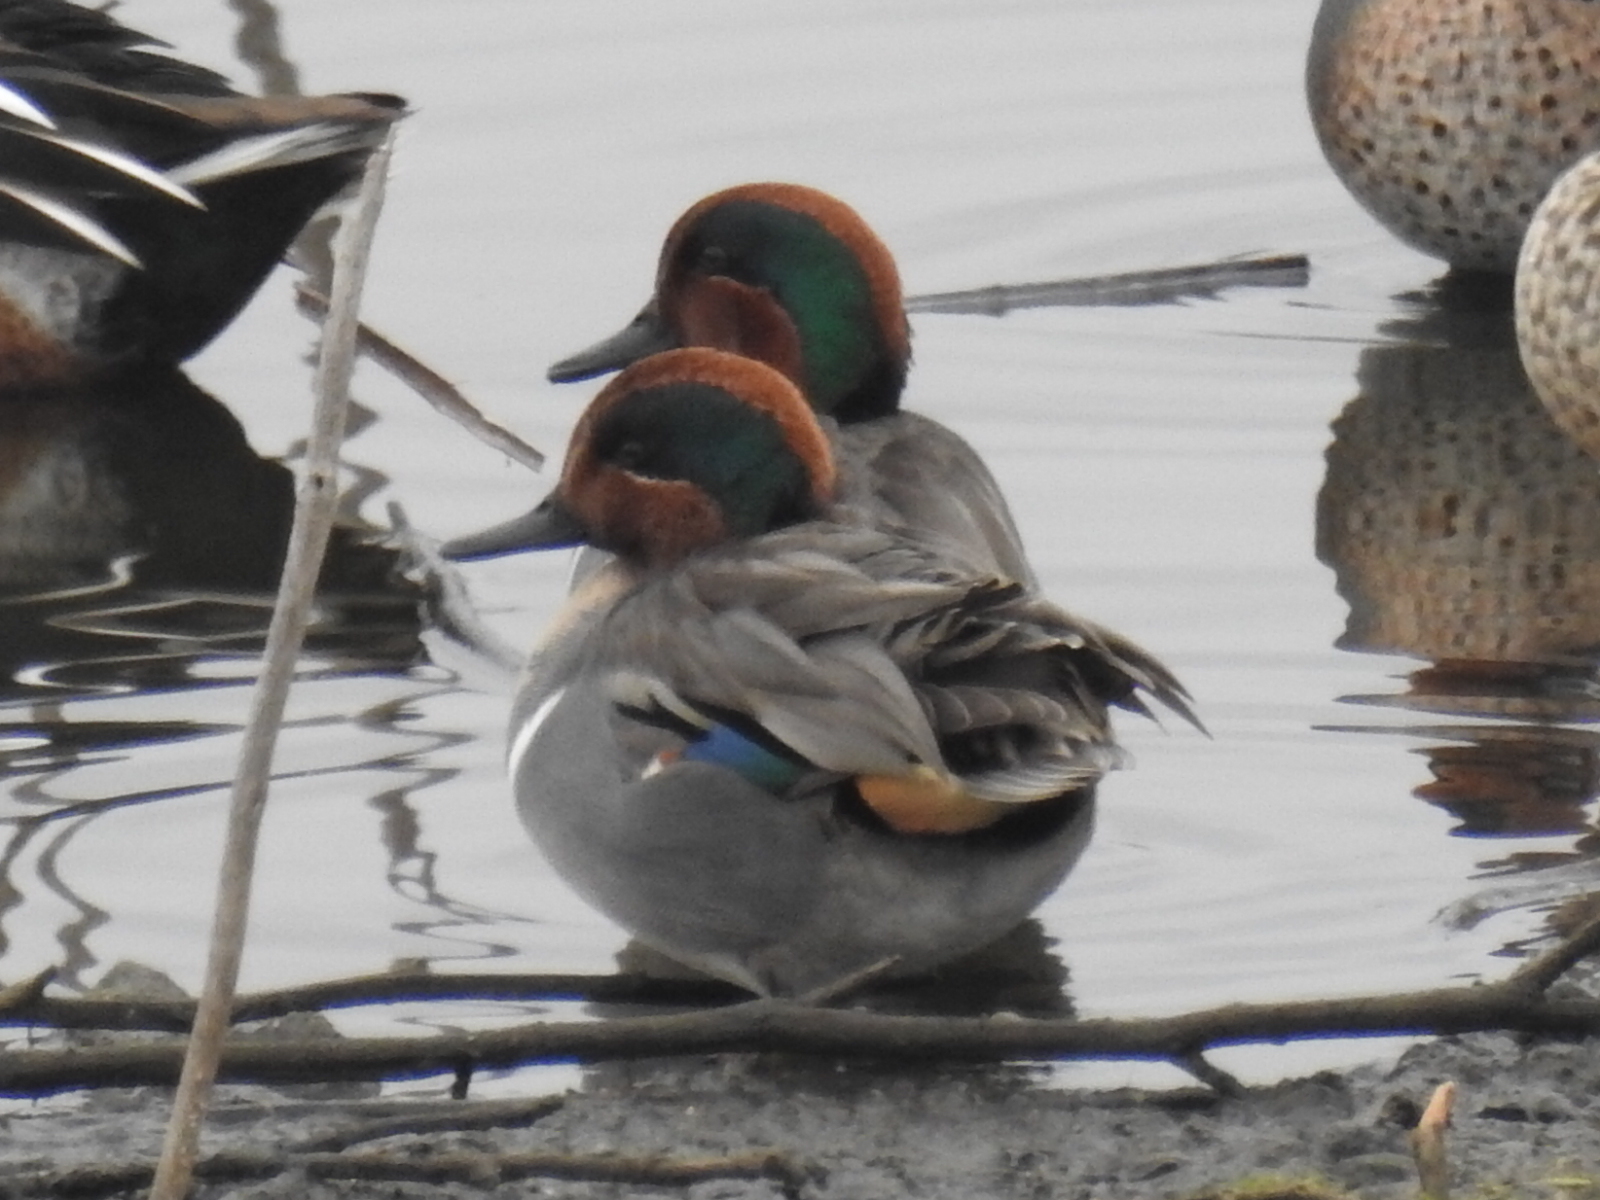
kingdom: Animalia
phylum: Chordata
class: Aves
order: Anseriformes
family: Anatidae
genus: Anas
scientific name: Anas crecca
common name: Eurasian teal
